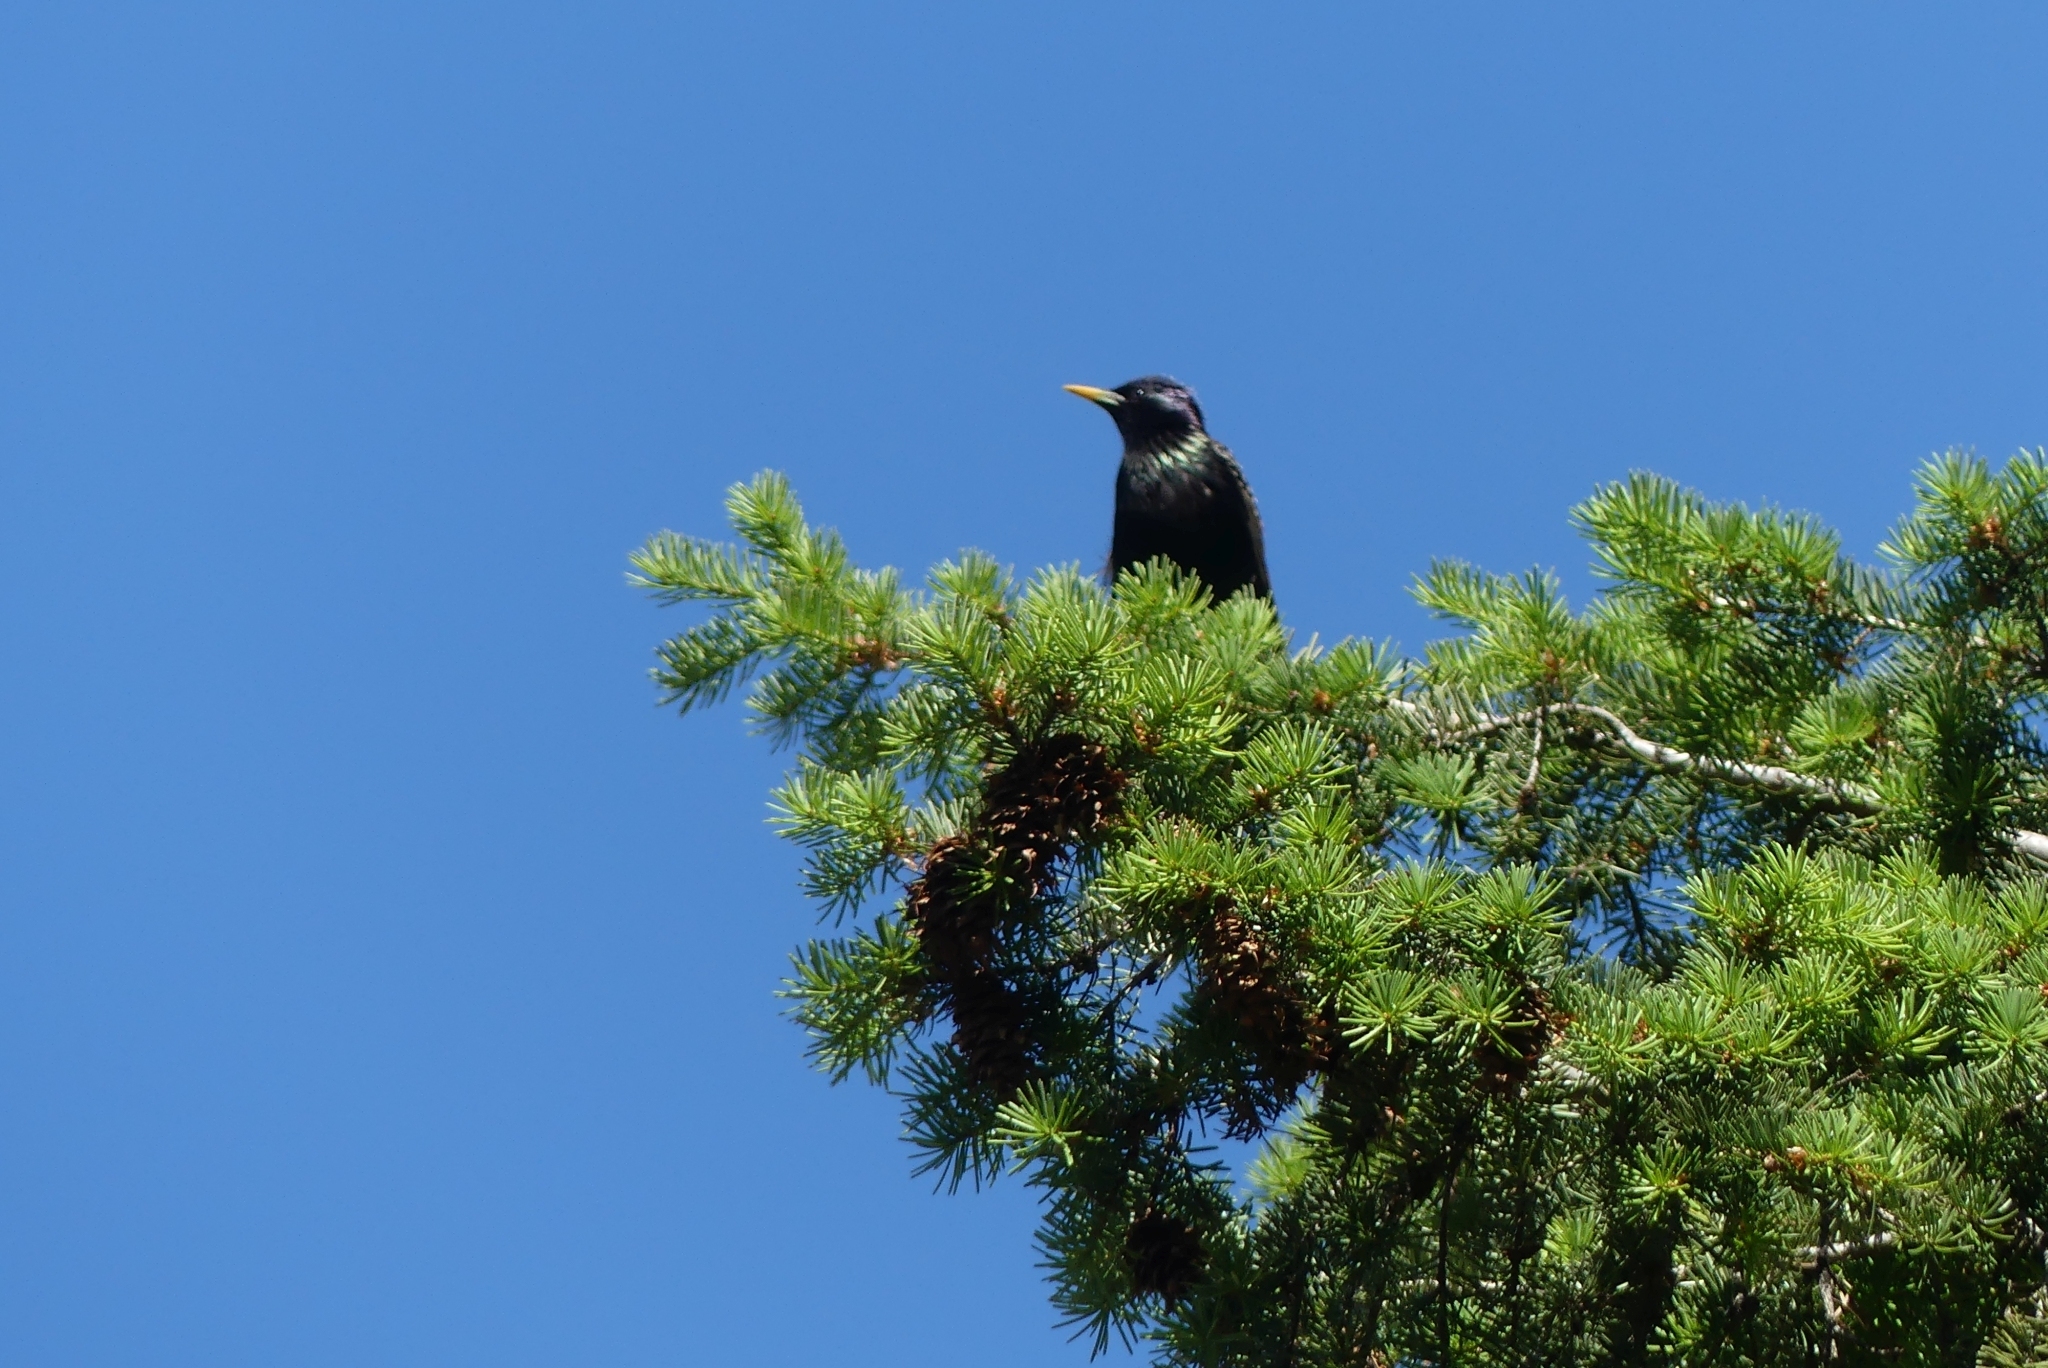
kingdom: Animalia
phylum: Chordata
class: Aves
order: Passeriformes
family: Sturnidae
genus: Sturnus
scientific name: Sturnus vulgaris
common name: Common starling
